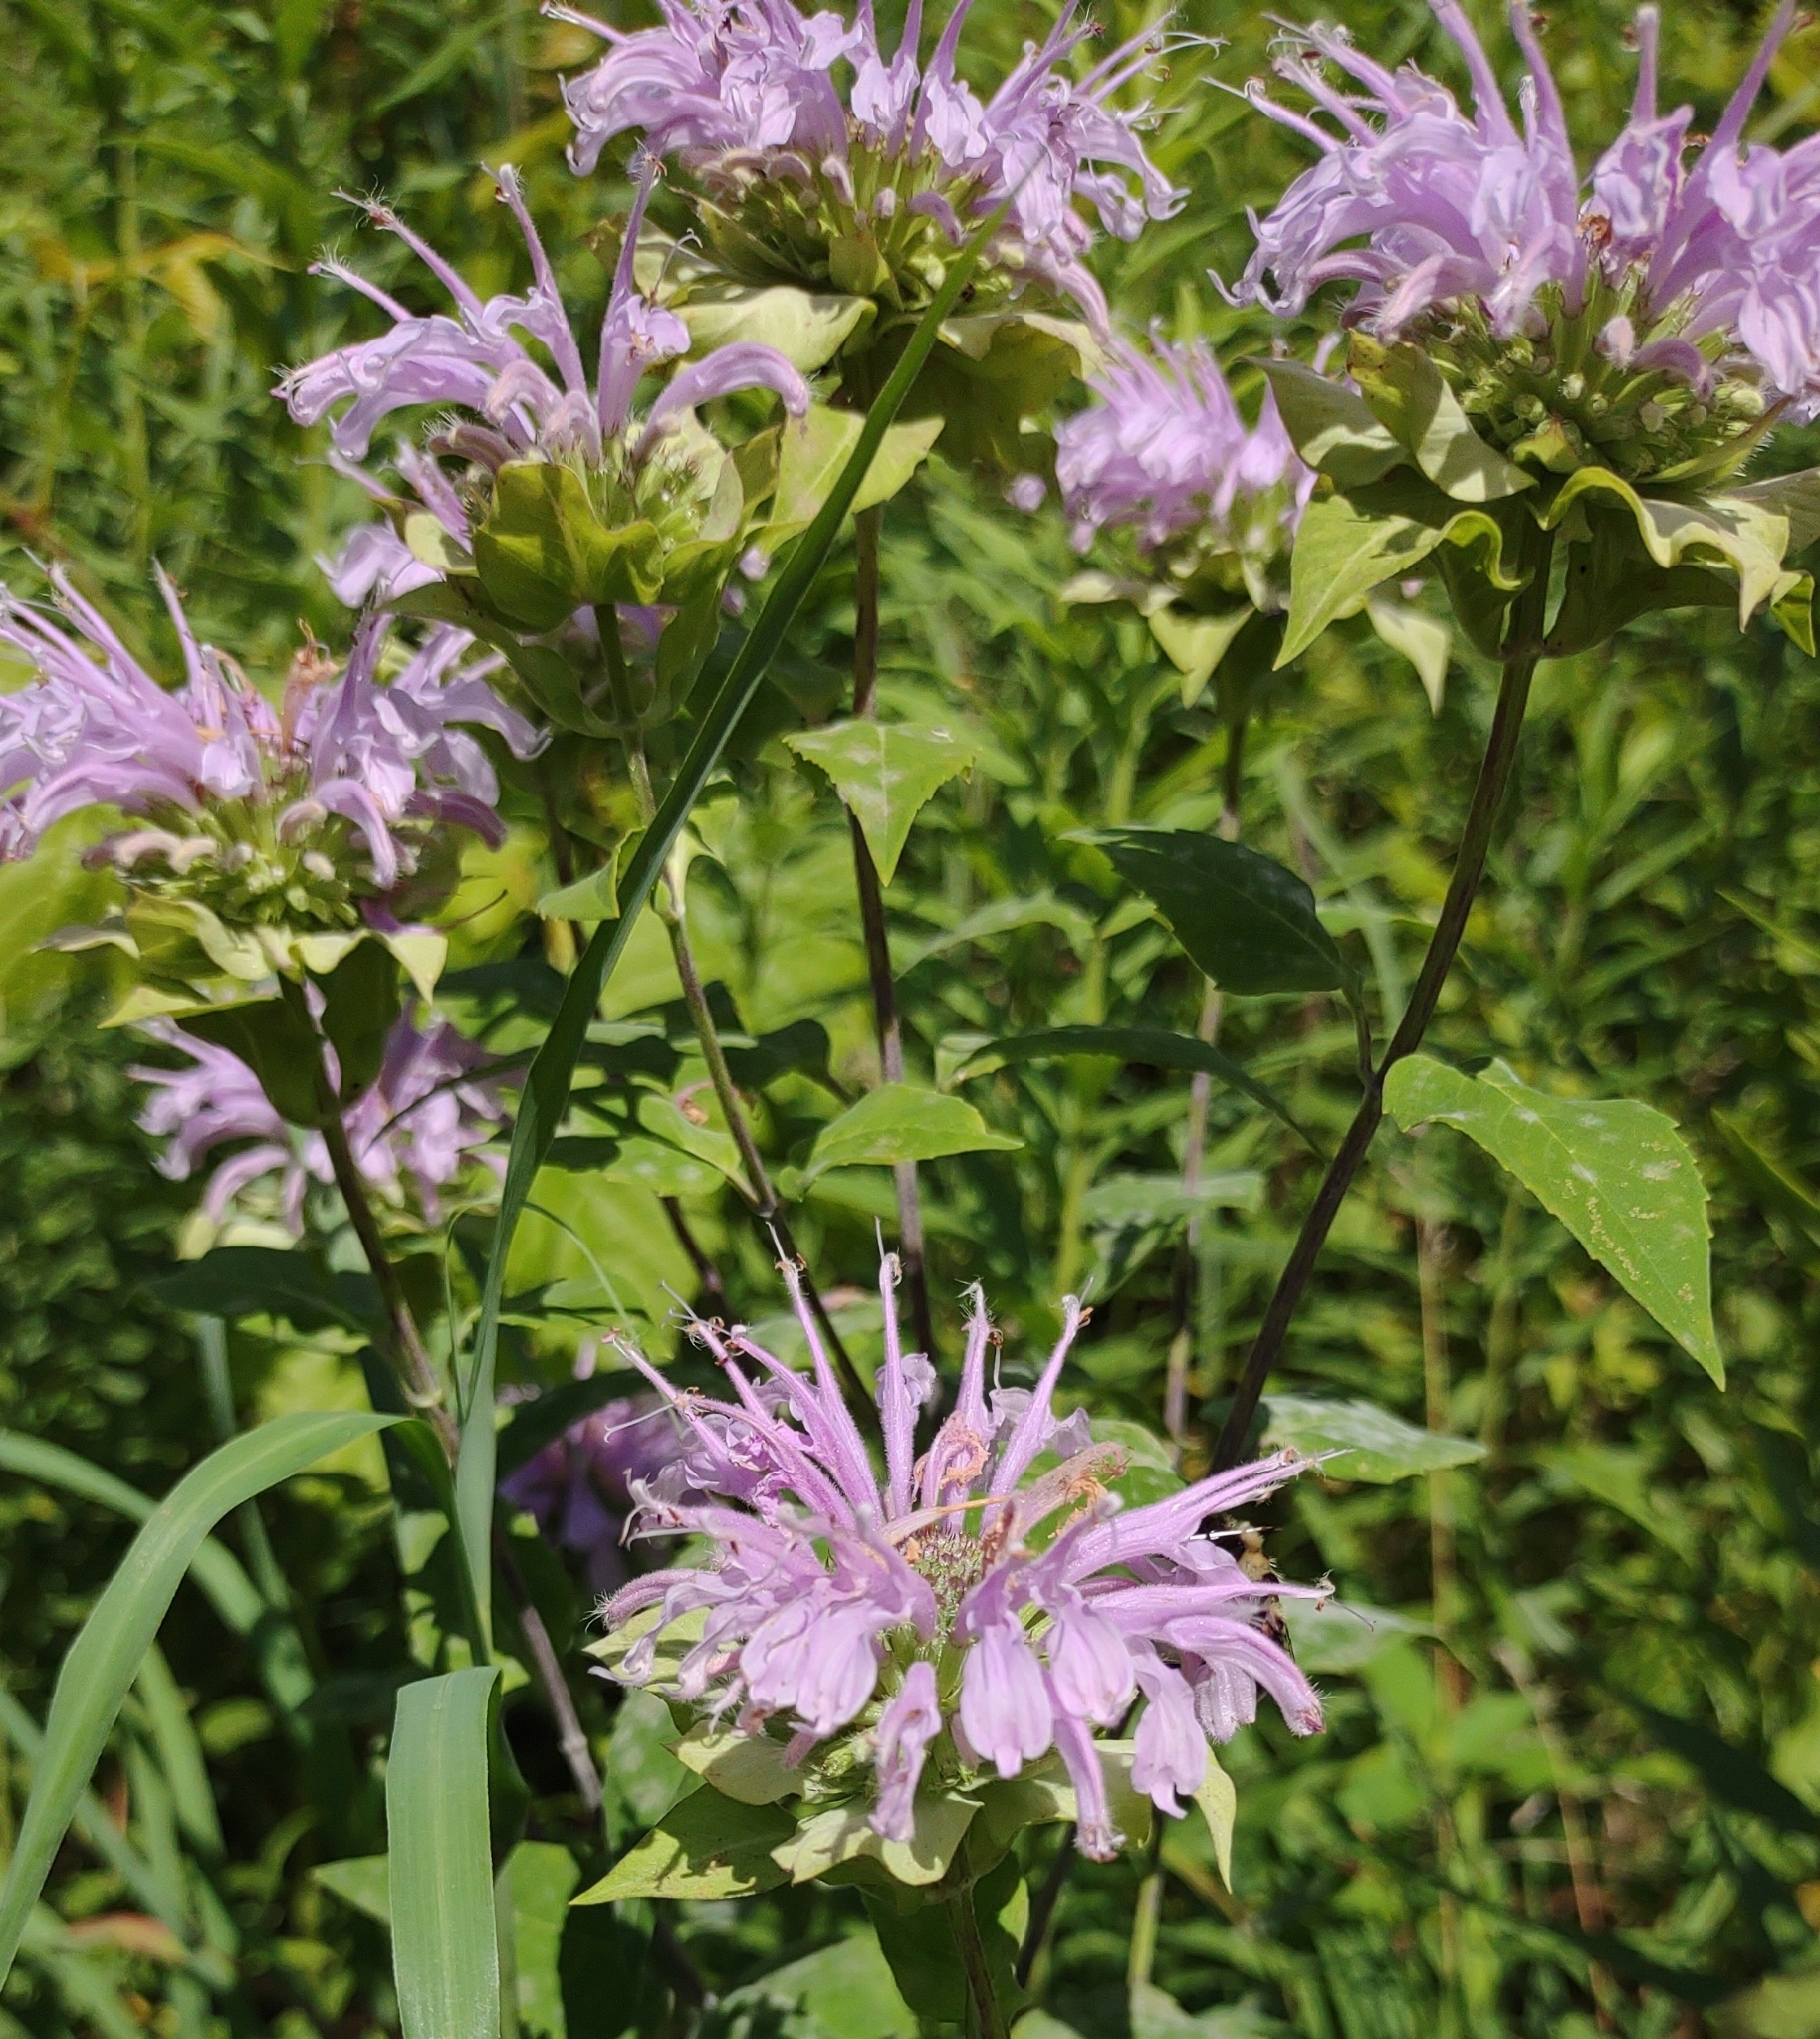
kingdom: Plantae
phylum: Tracheophyta
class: Magnoliopsida
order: Lamiales
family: Lamiaceae
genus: Monarda
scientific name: Monarda fistulosa
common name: Purple beebalm
